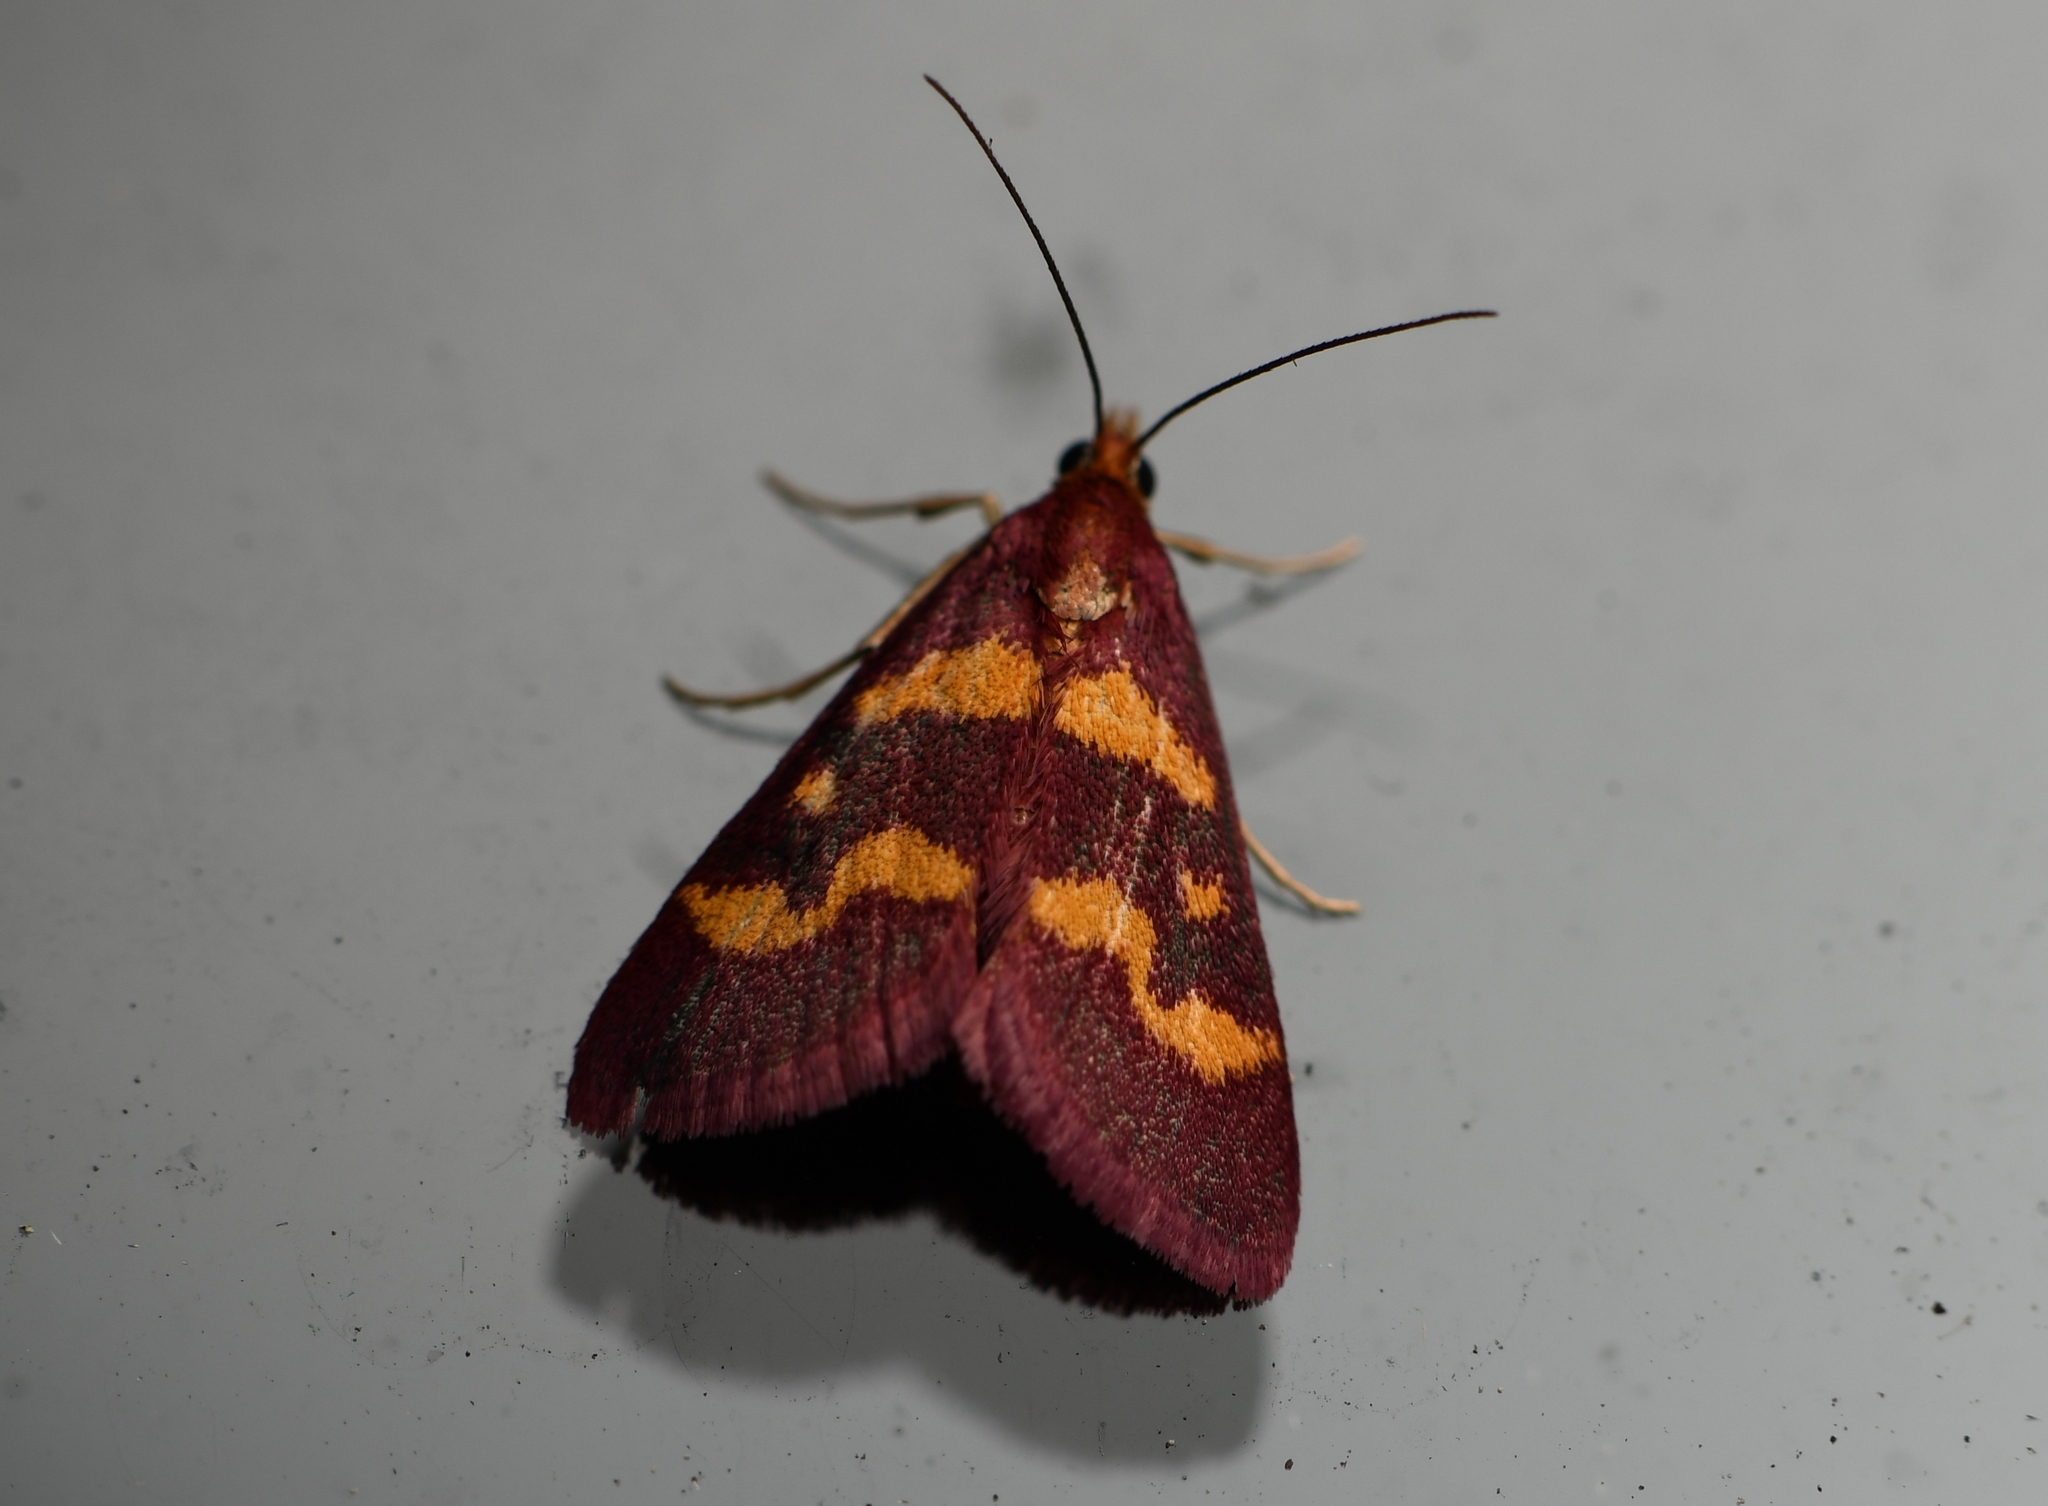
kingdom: Animalia
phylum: Arthropoda
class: Insecta
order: Lepidoptera
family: Crambidae
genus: Pyrausta
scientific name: Pyrausta tyralis
